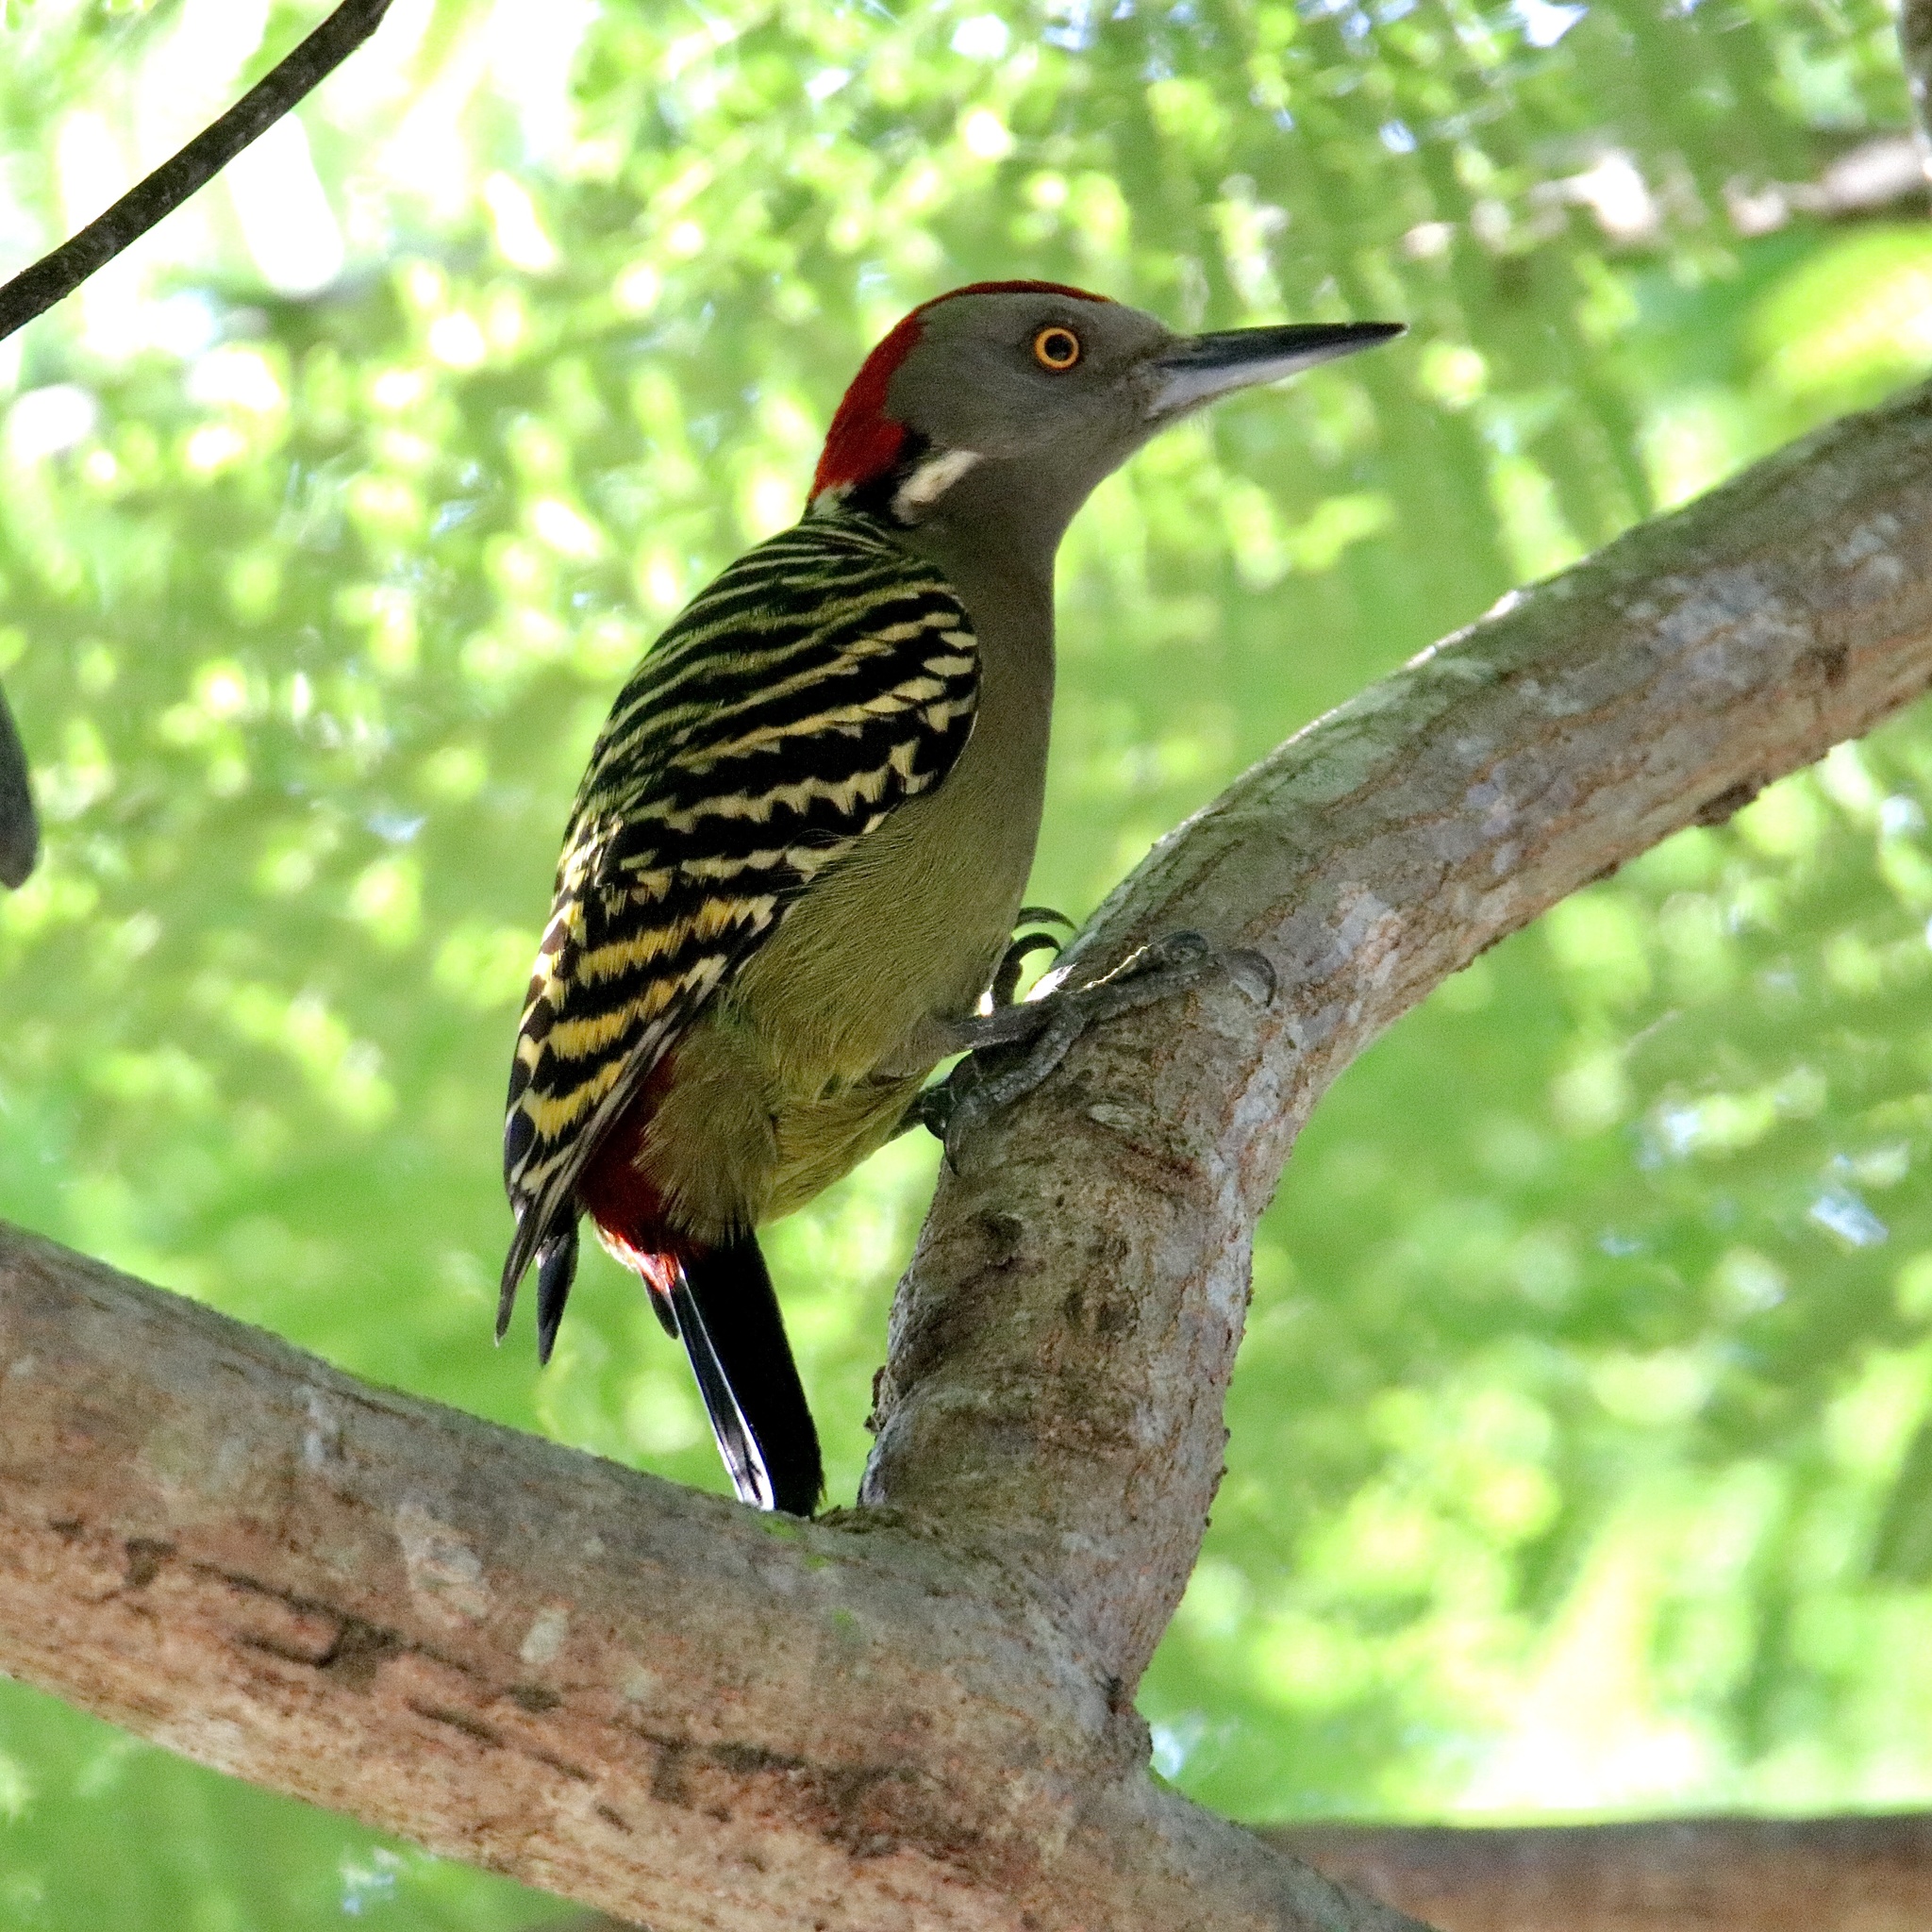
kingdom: Animalia
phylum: Chordata
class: Aves
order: Piciformes
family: Picidae
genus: Melanerpes
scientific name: Melanerpes striatus
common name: Hispaniolan woodpecker
